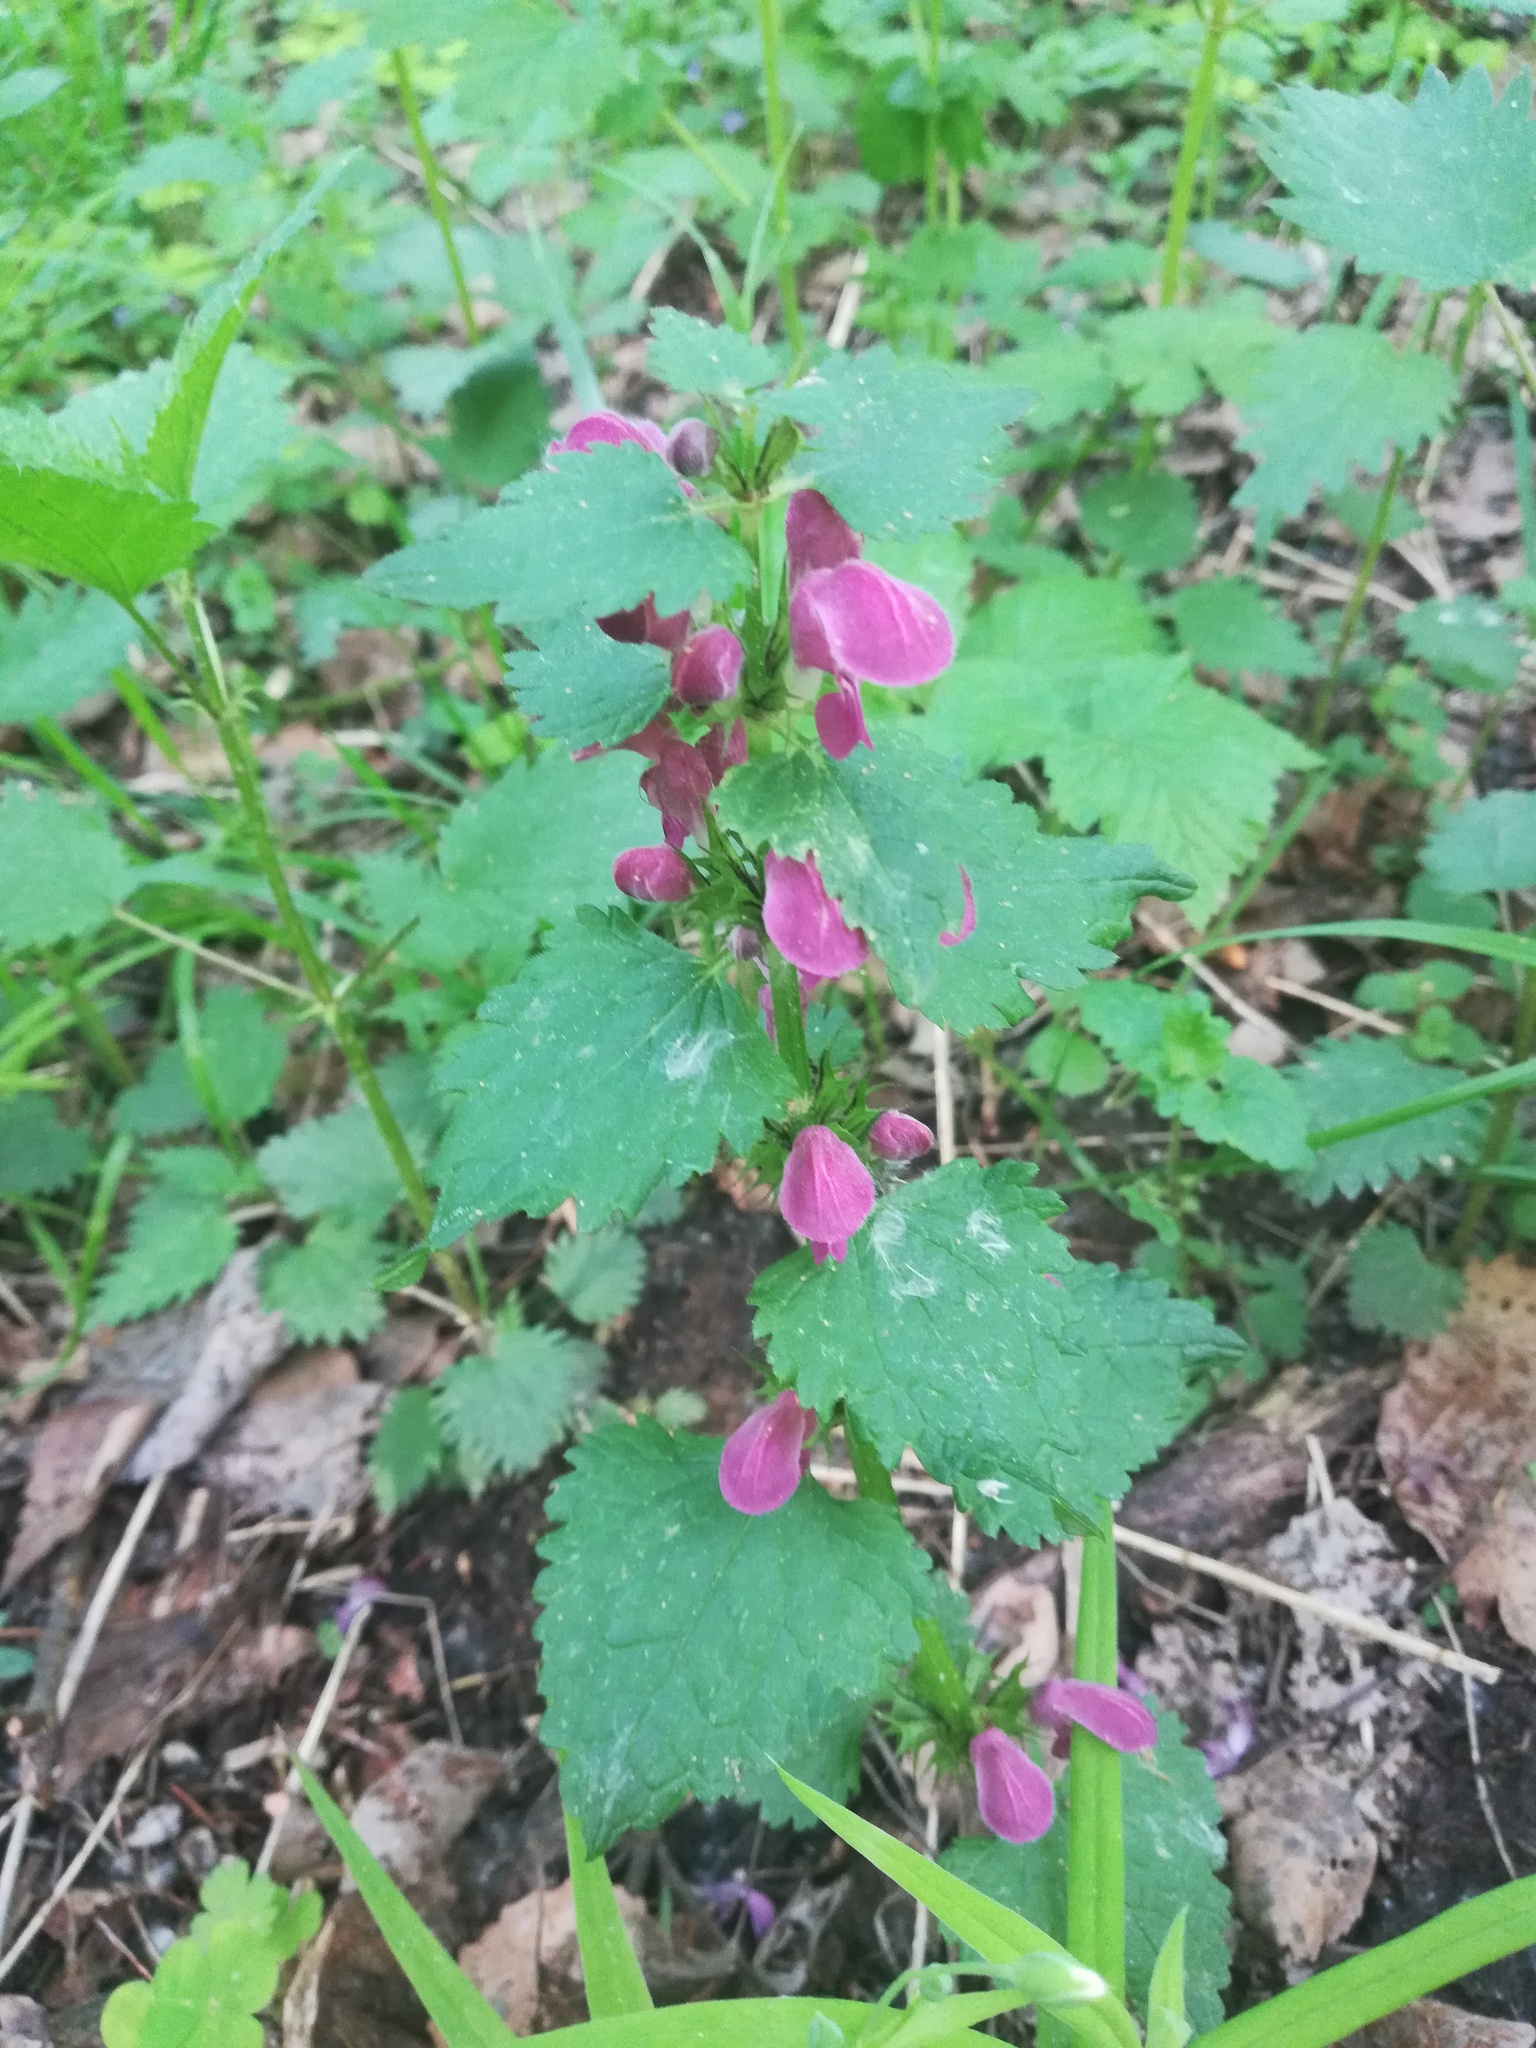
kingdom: Plantae
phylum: Tracheophyta
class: Magnoliopsida
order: Lamiales
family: Lamiaceae
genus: Lamium
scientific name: Lamium maculatum
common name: Spotted dead-nettle
